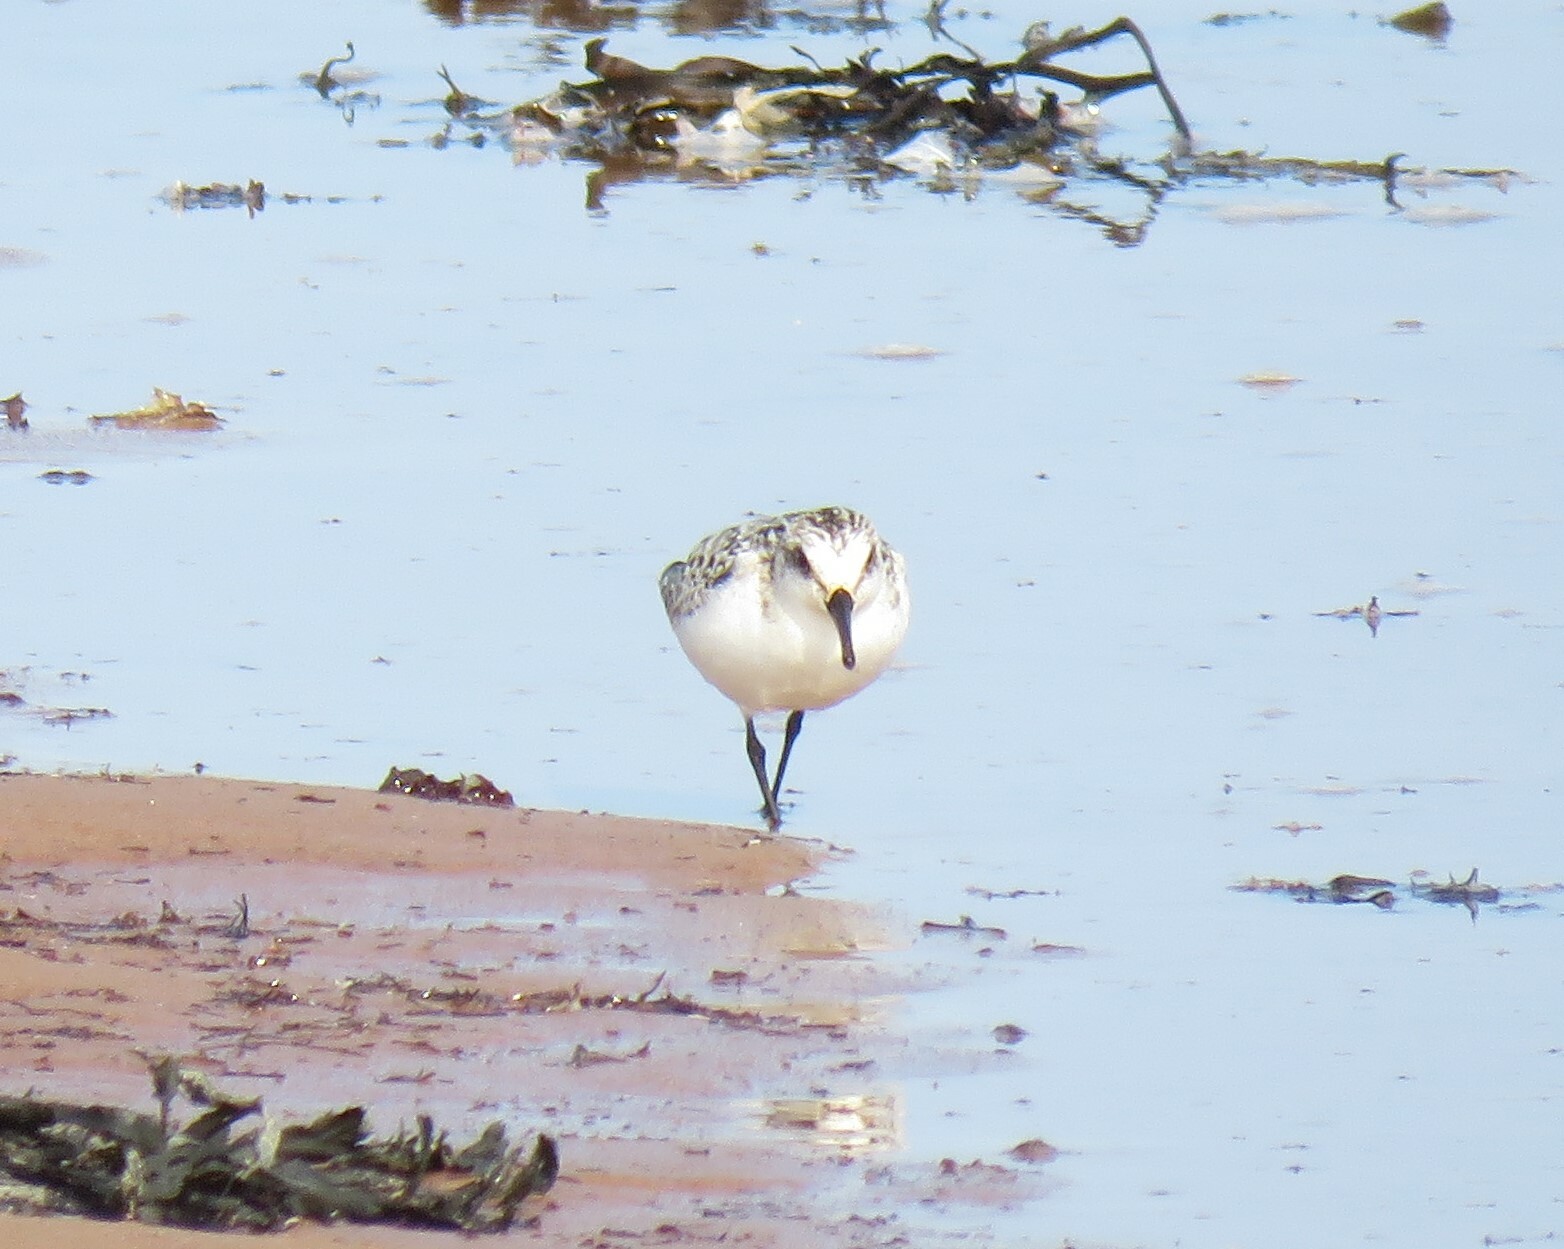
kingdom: Animalia
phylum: Chordata
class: Aves
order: Charadriiformes
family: Scolopacidae
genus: Calidris
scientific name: Calidris alba
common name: Sanderling
